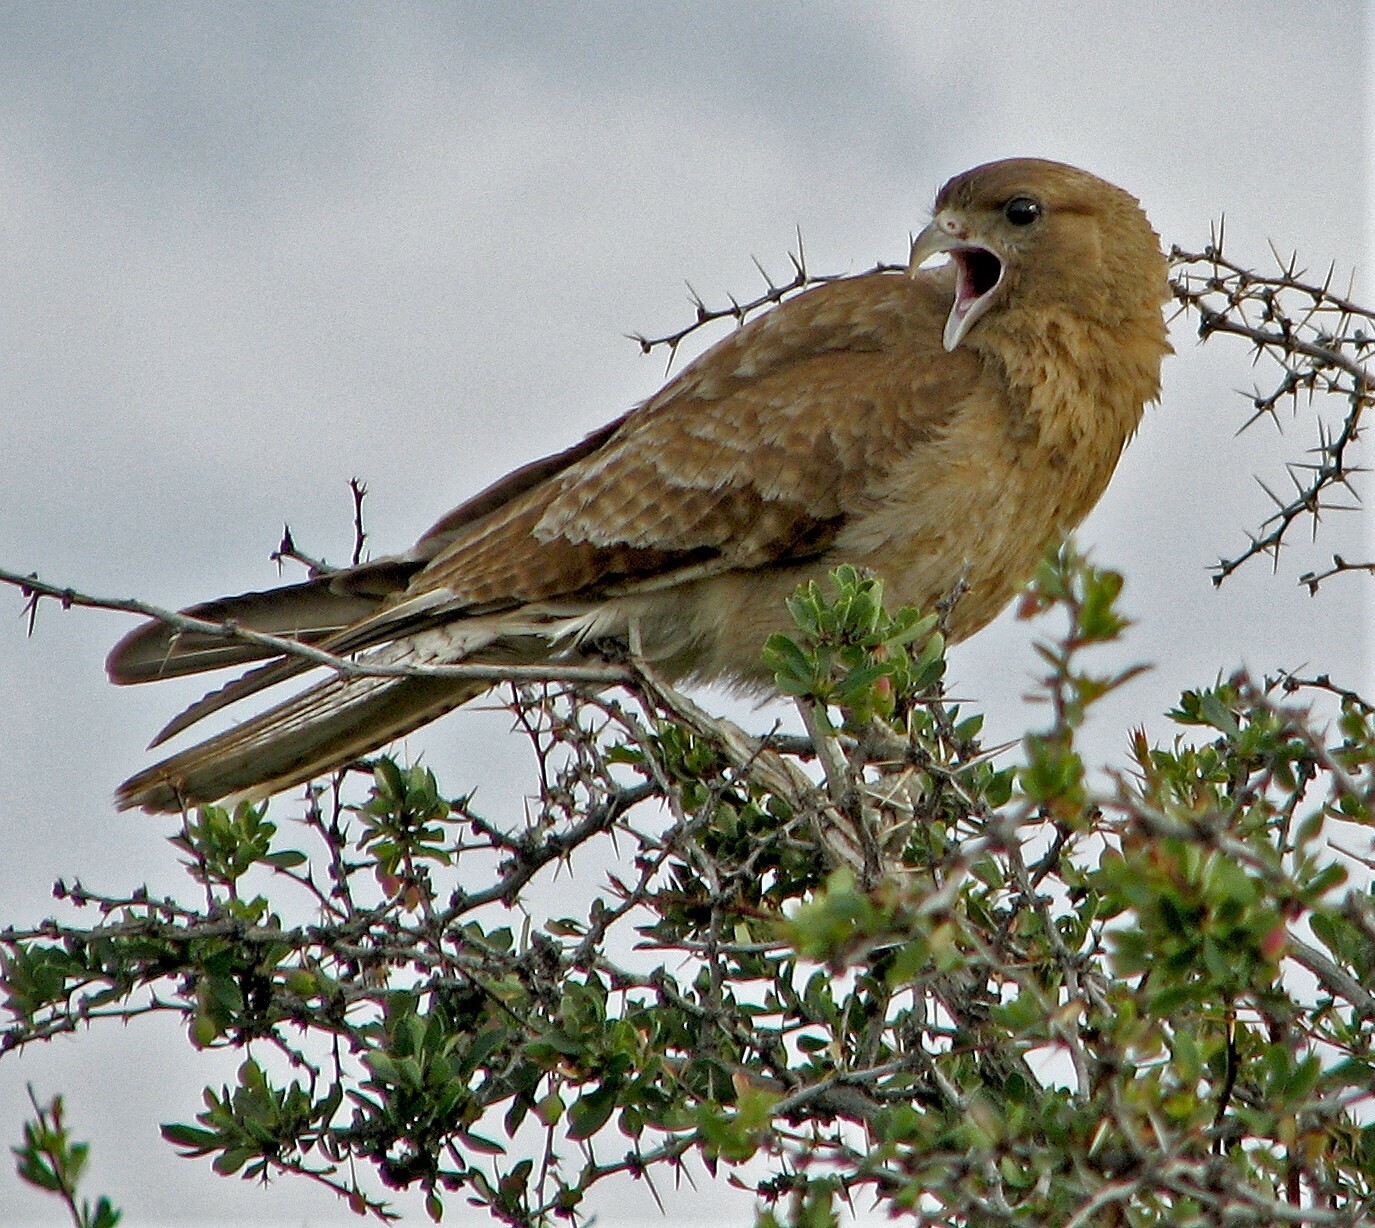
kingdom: Animalia
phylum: Chordata
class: Aves
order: Falconiformes
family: Falconidae
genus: Daptrius
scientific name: Daptrius
